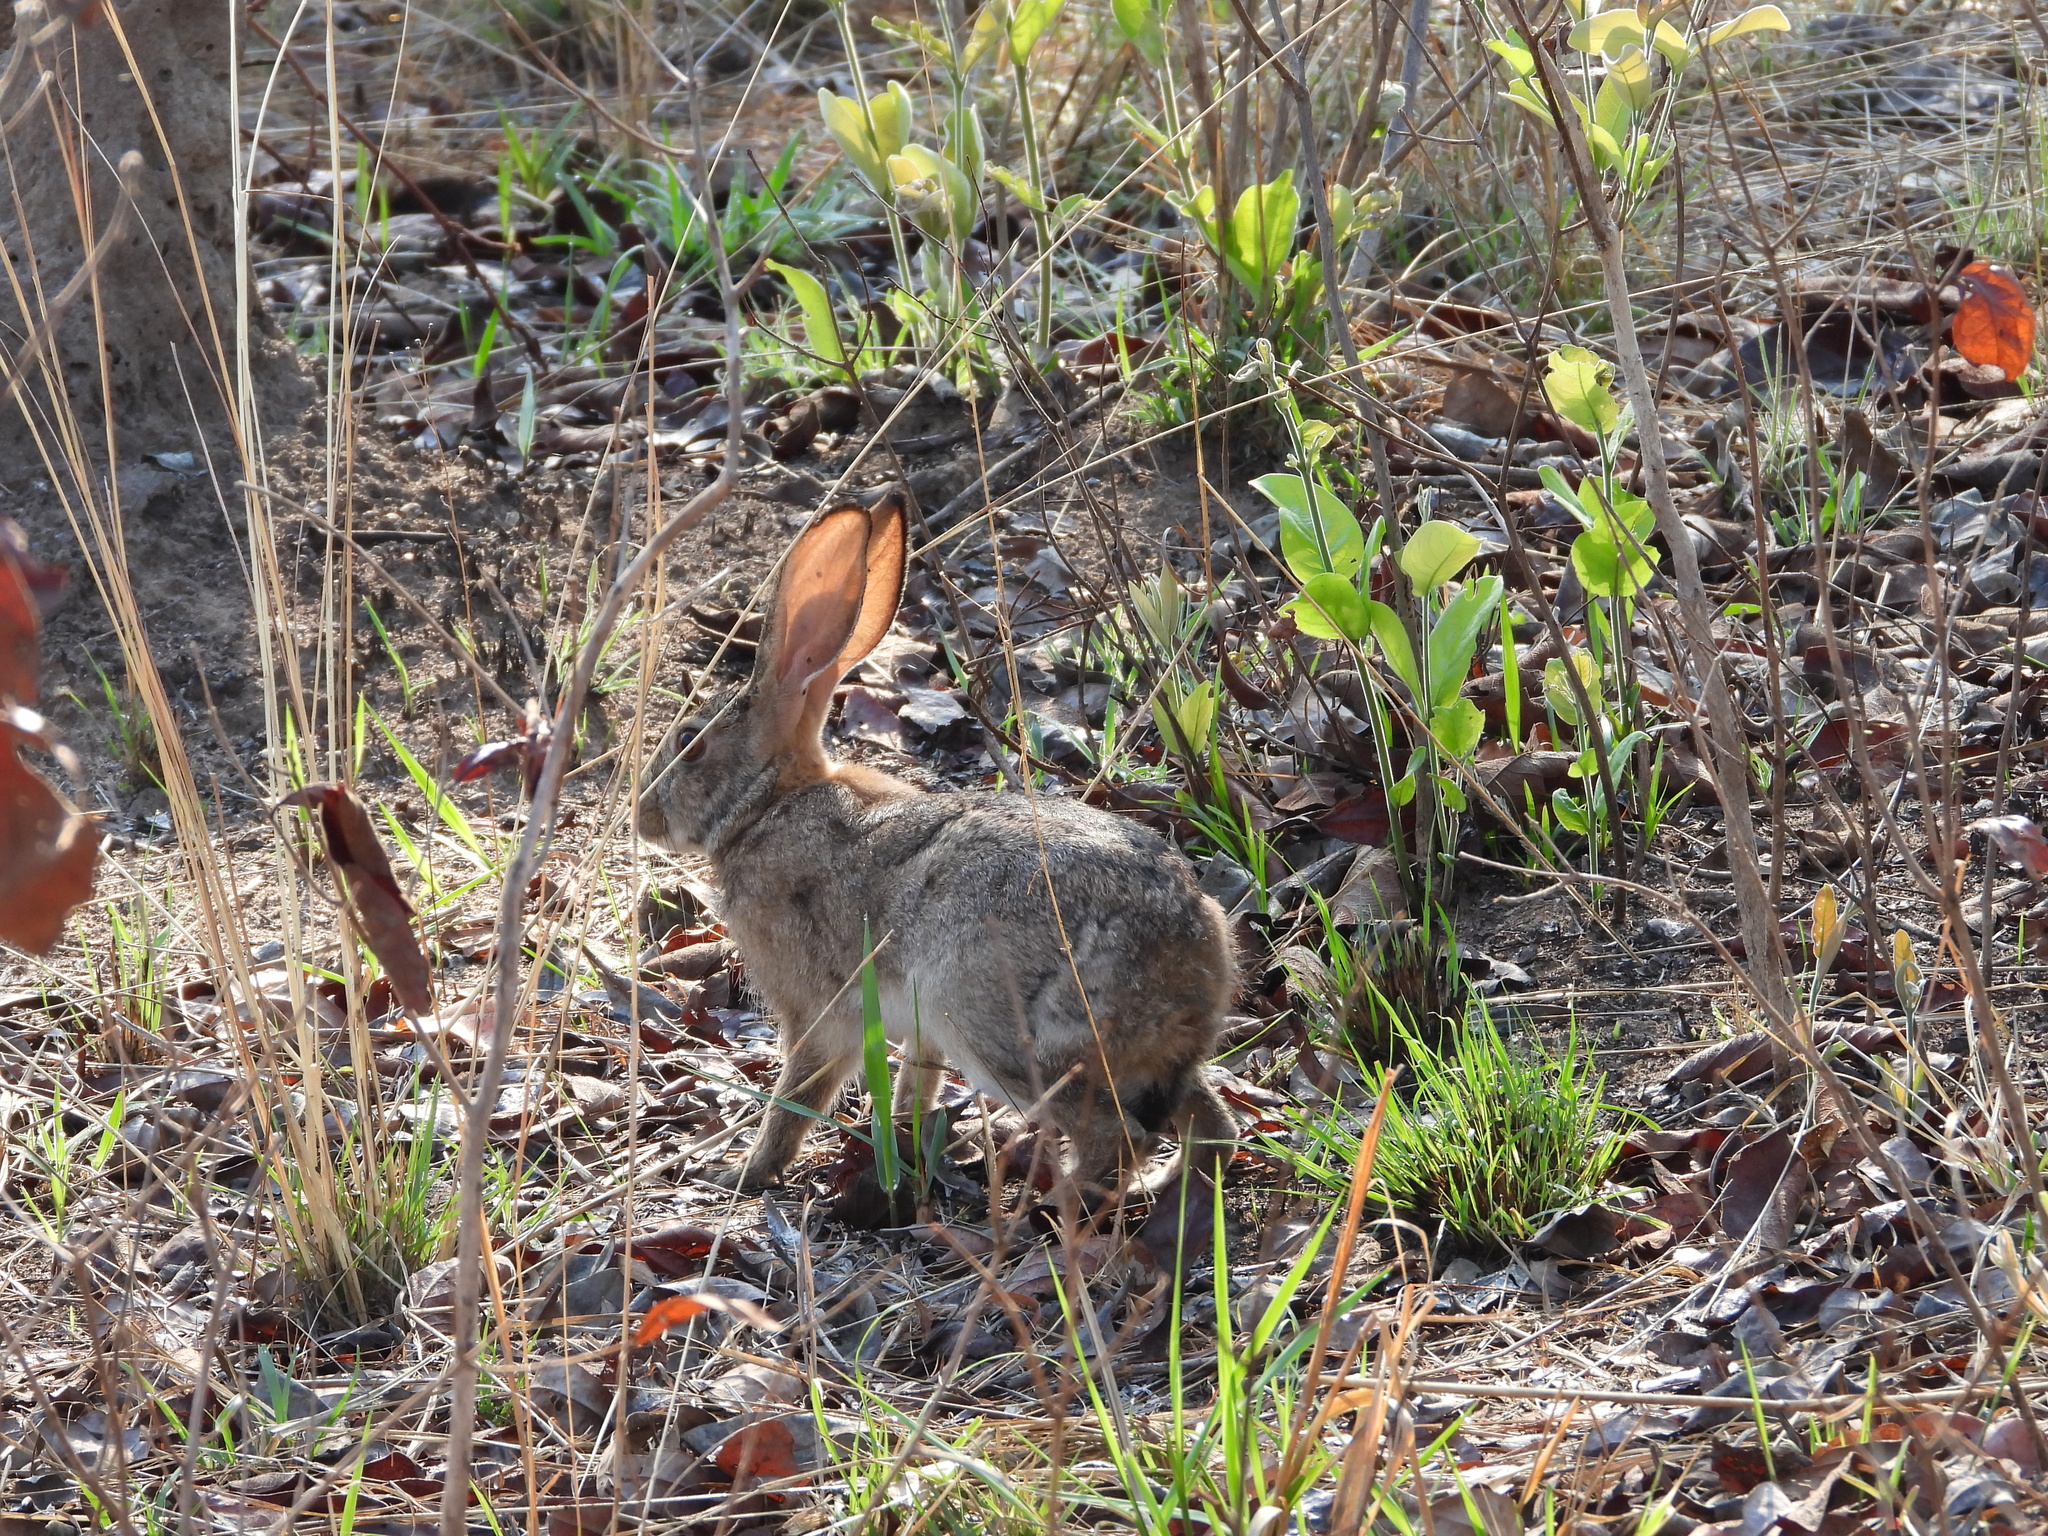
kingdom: Animalia
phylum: Chordata
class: Mammalia
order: Lagomorpha
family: Leporidae
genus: Lepus
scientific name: Lepus saxatilis
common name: Scrub hare
